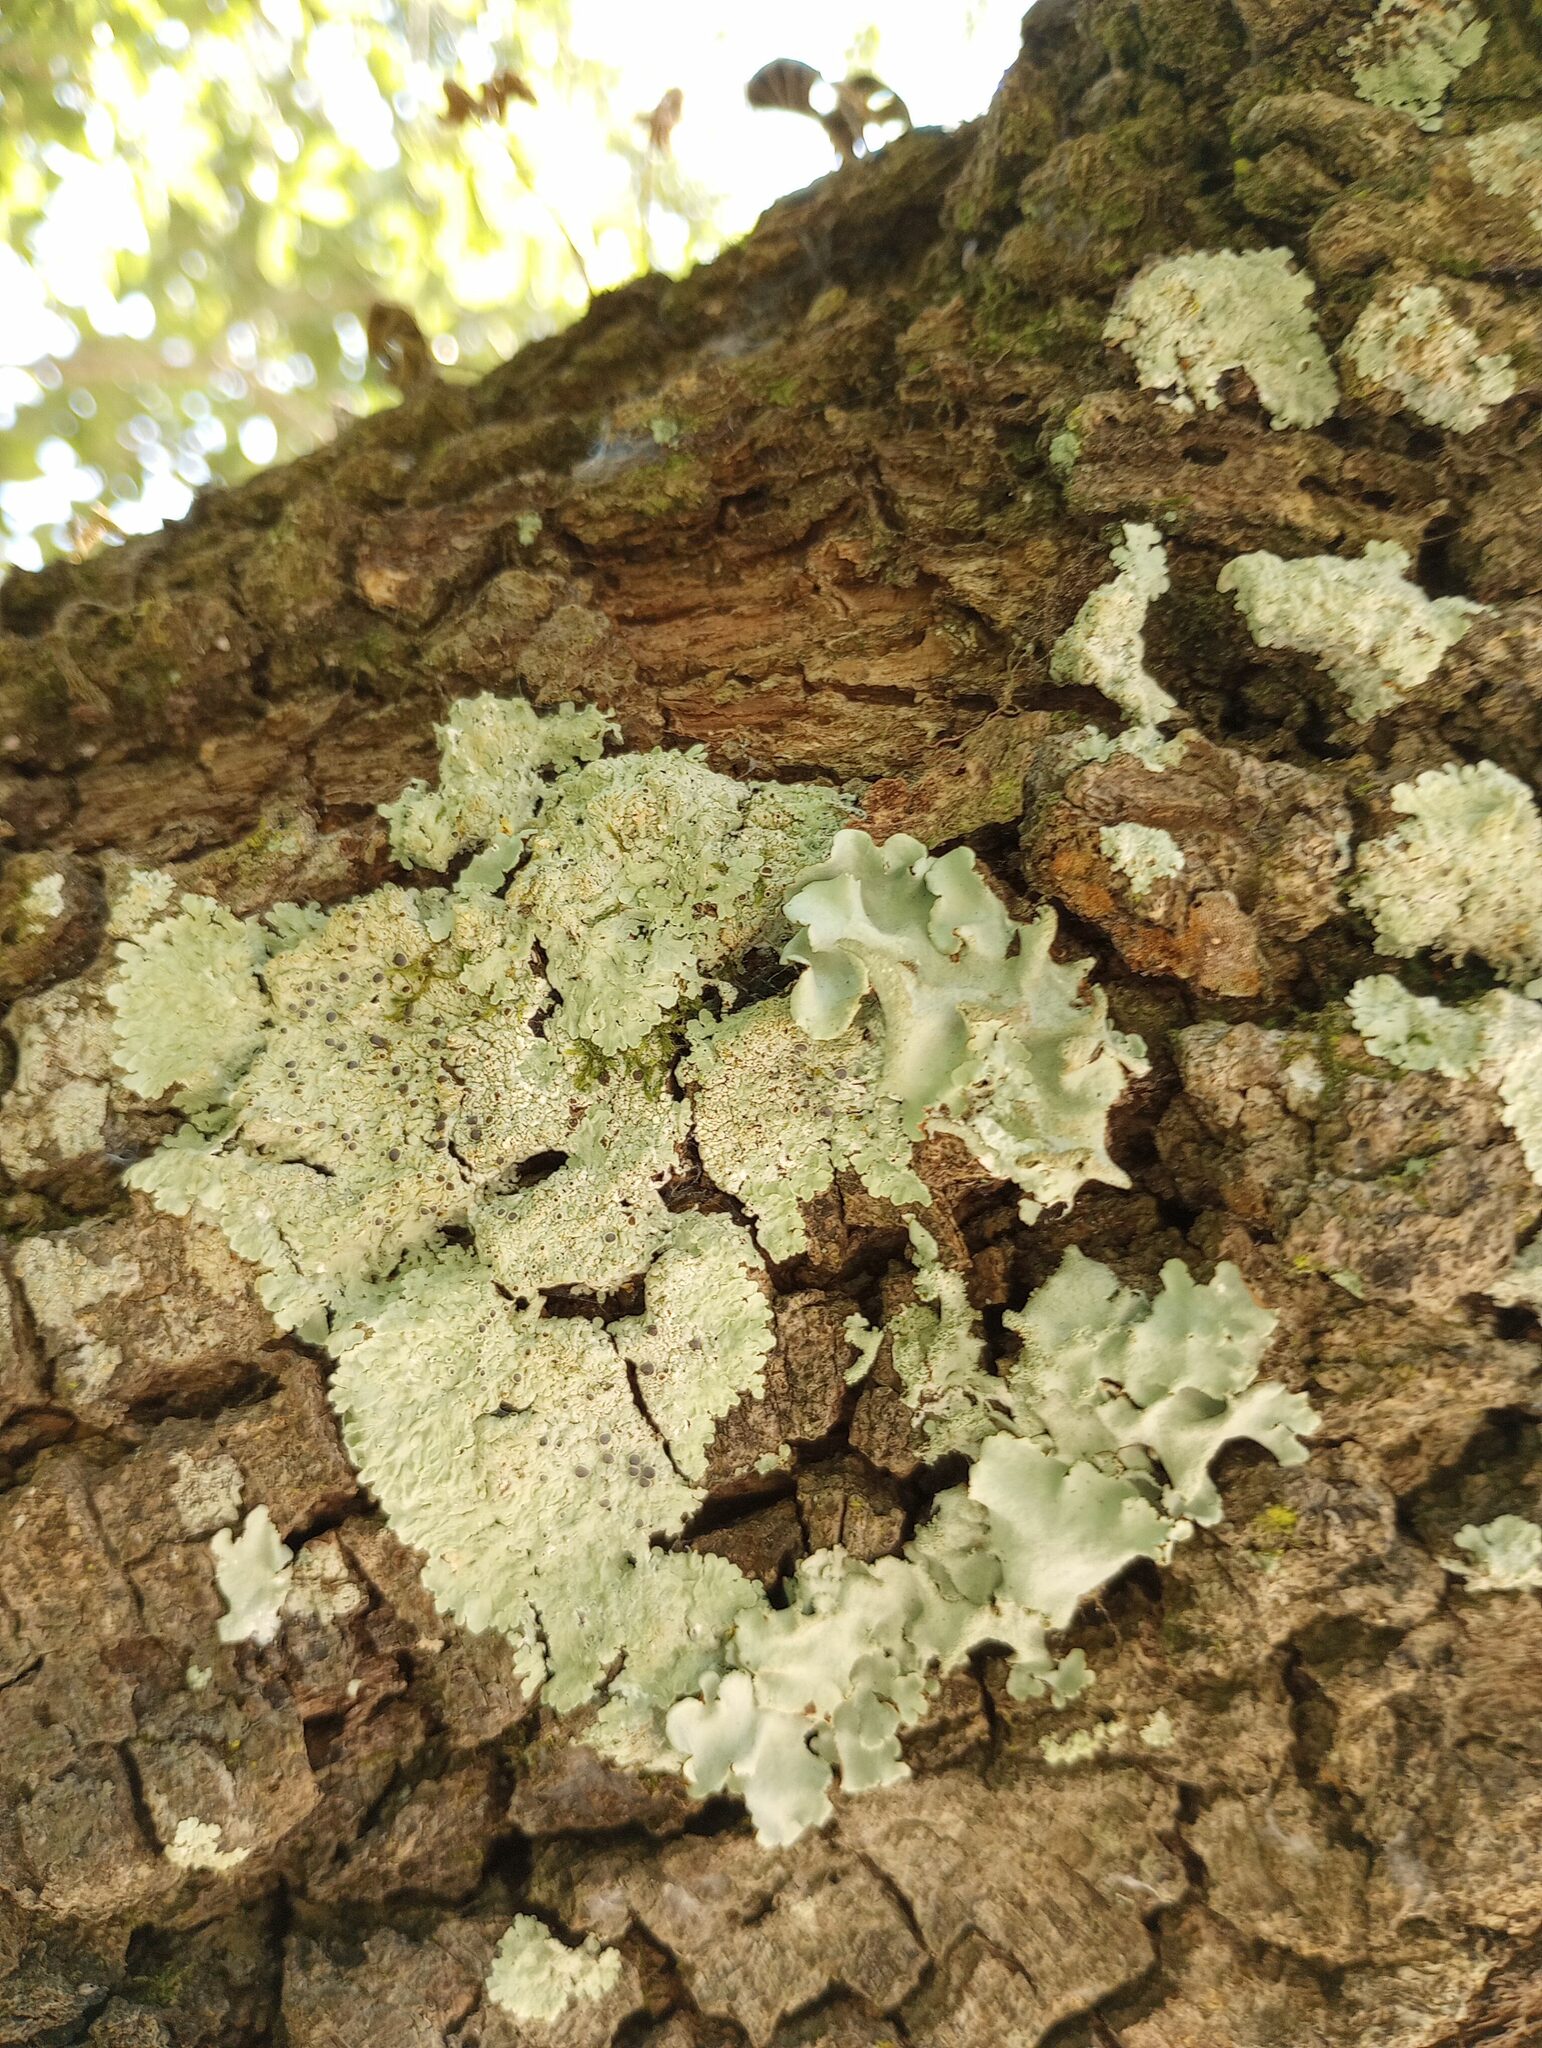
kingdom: Fungi
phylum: Ascomycota
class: Lecanoromycetes
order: Lecanorales
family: Parmeliaceae
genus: Parmotrema
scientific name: Parmotrema tinctorum
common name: Old gray ruffles
